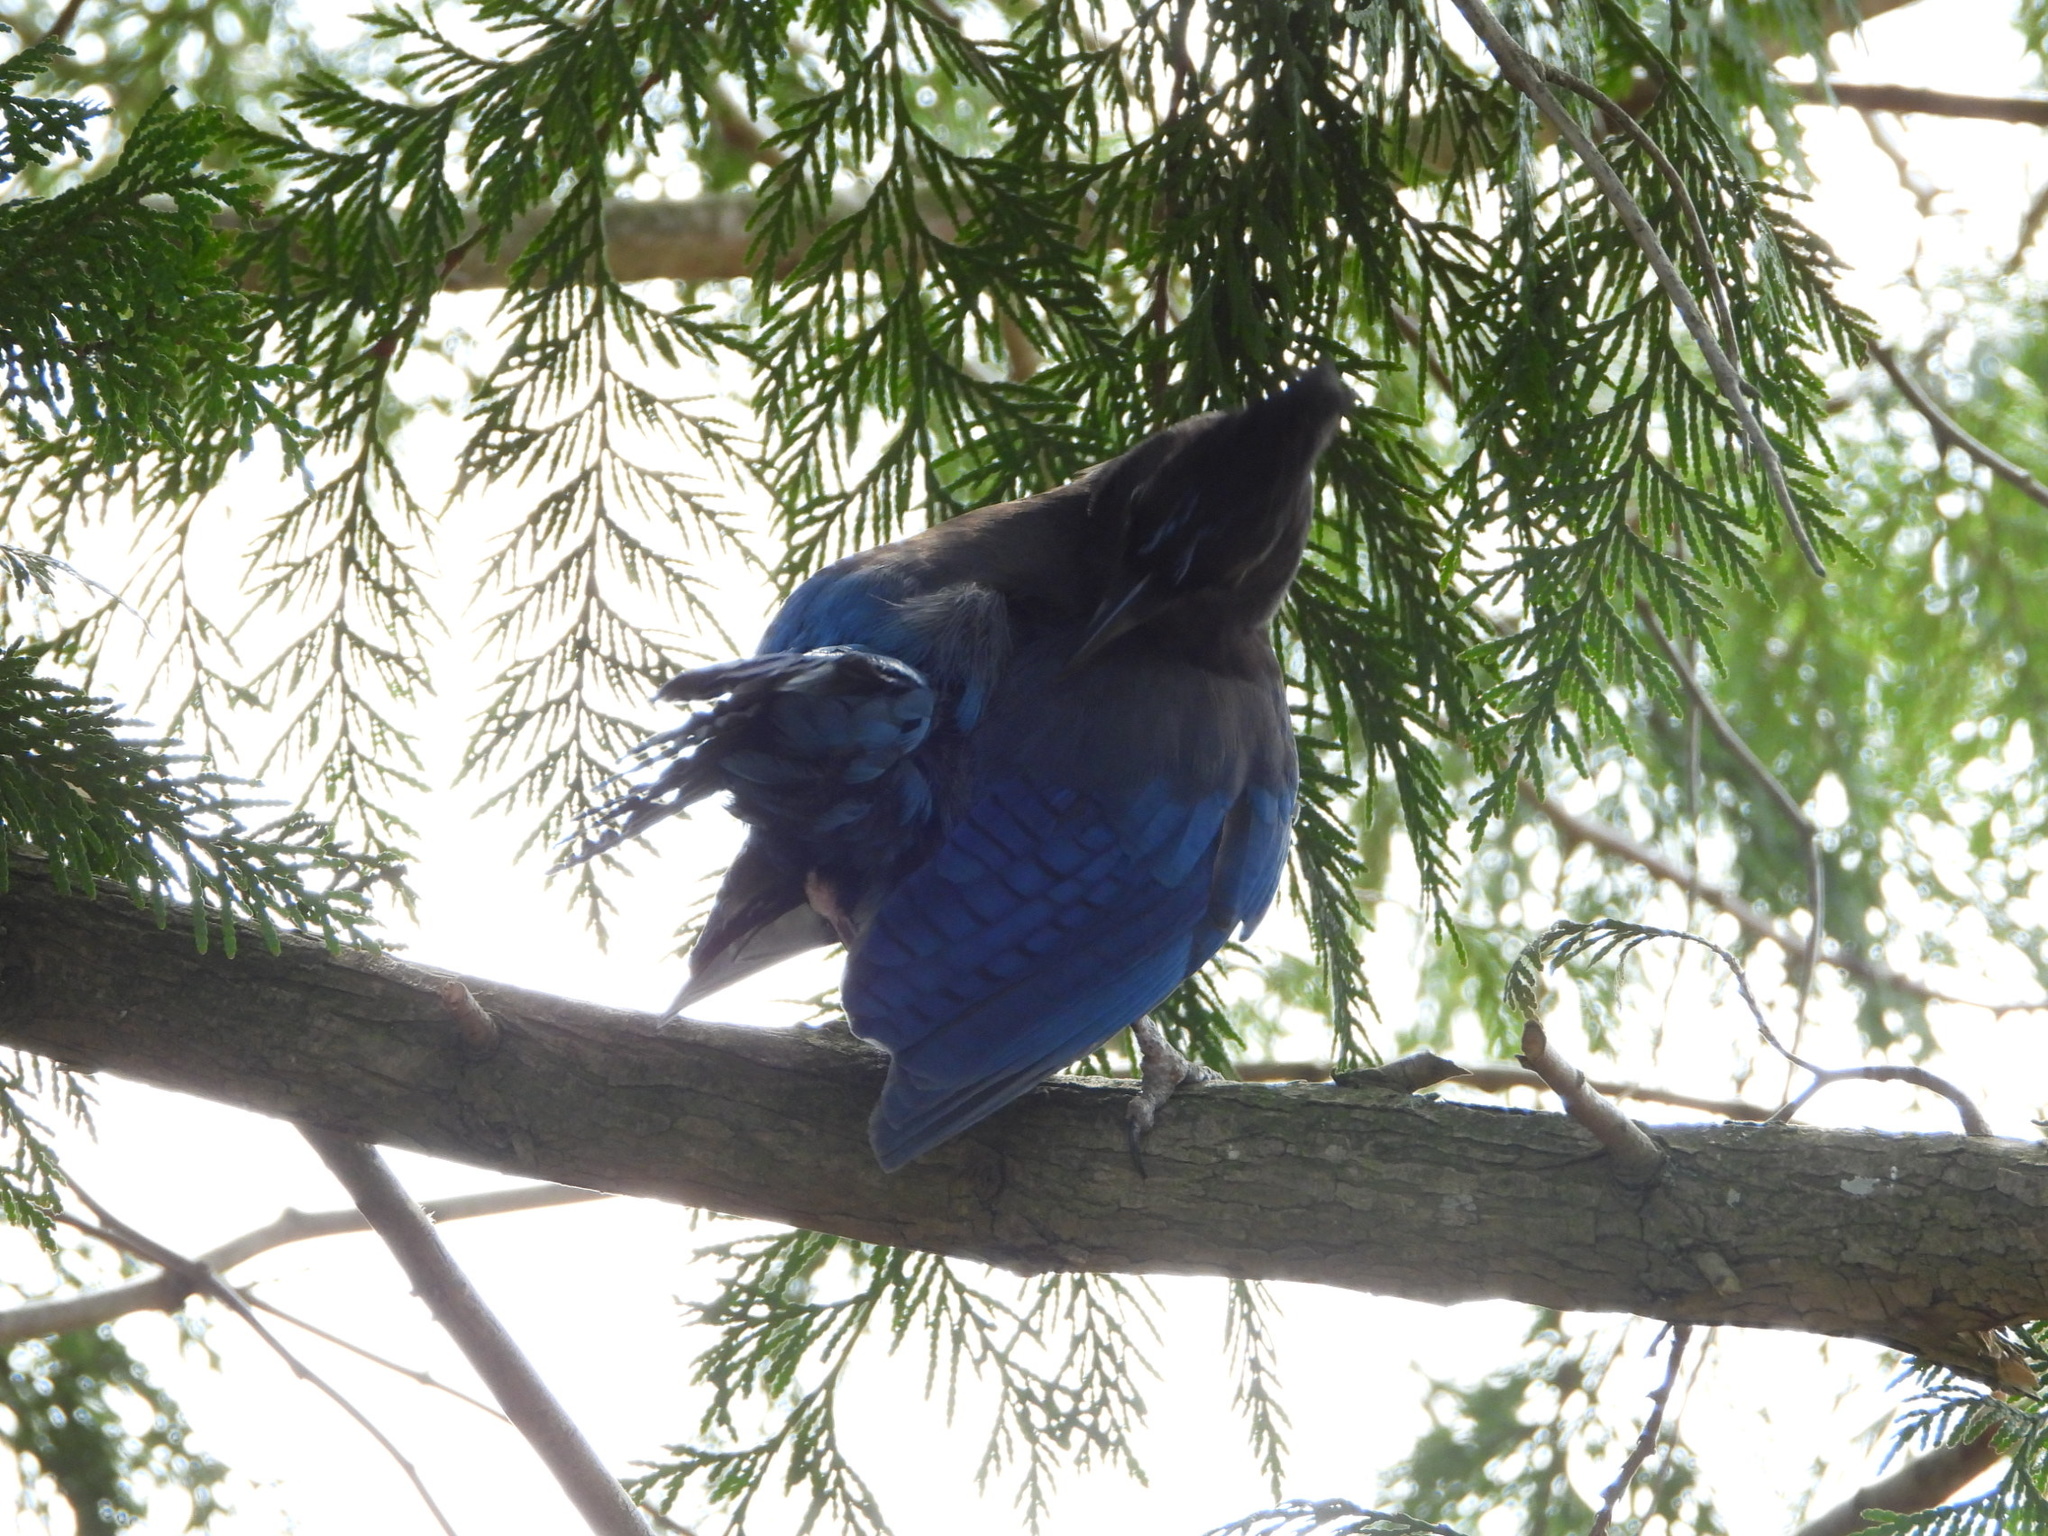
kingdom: Animalia
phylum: Chordata
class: Aves
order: Passeriformes
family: Corvidae
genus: Cyanocitta
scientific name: Cyanocitta stelleri
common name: Steller's jay
